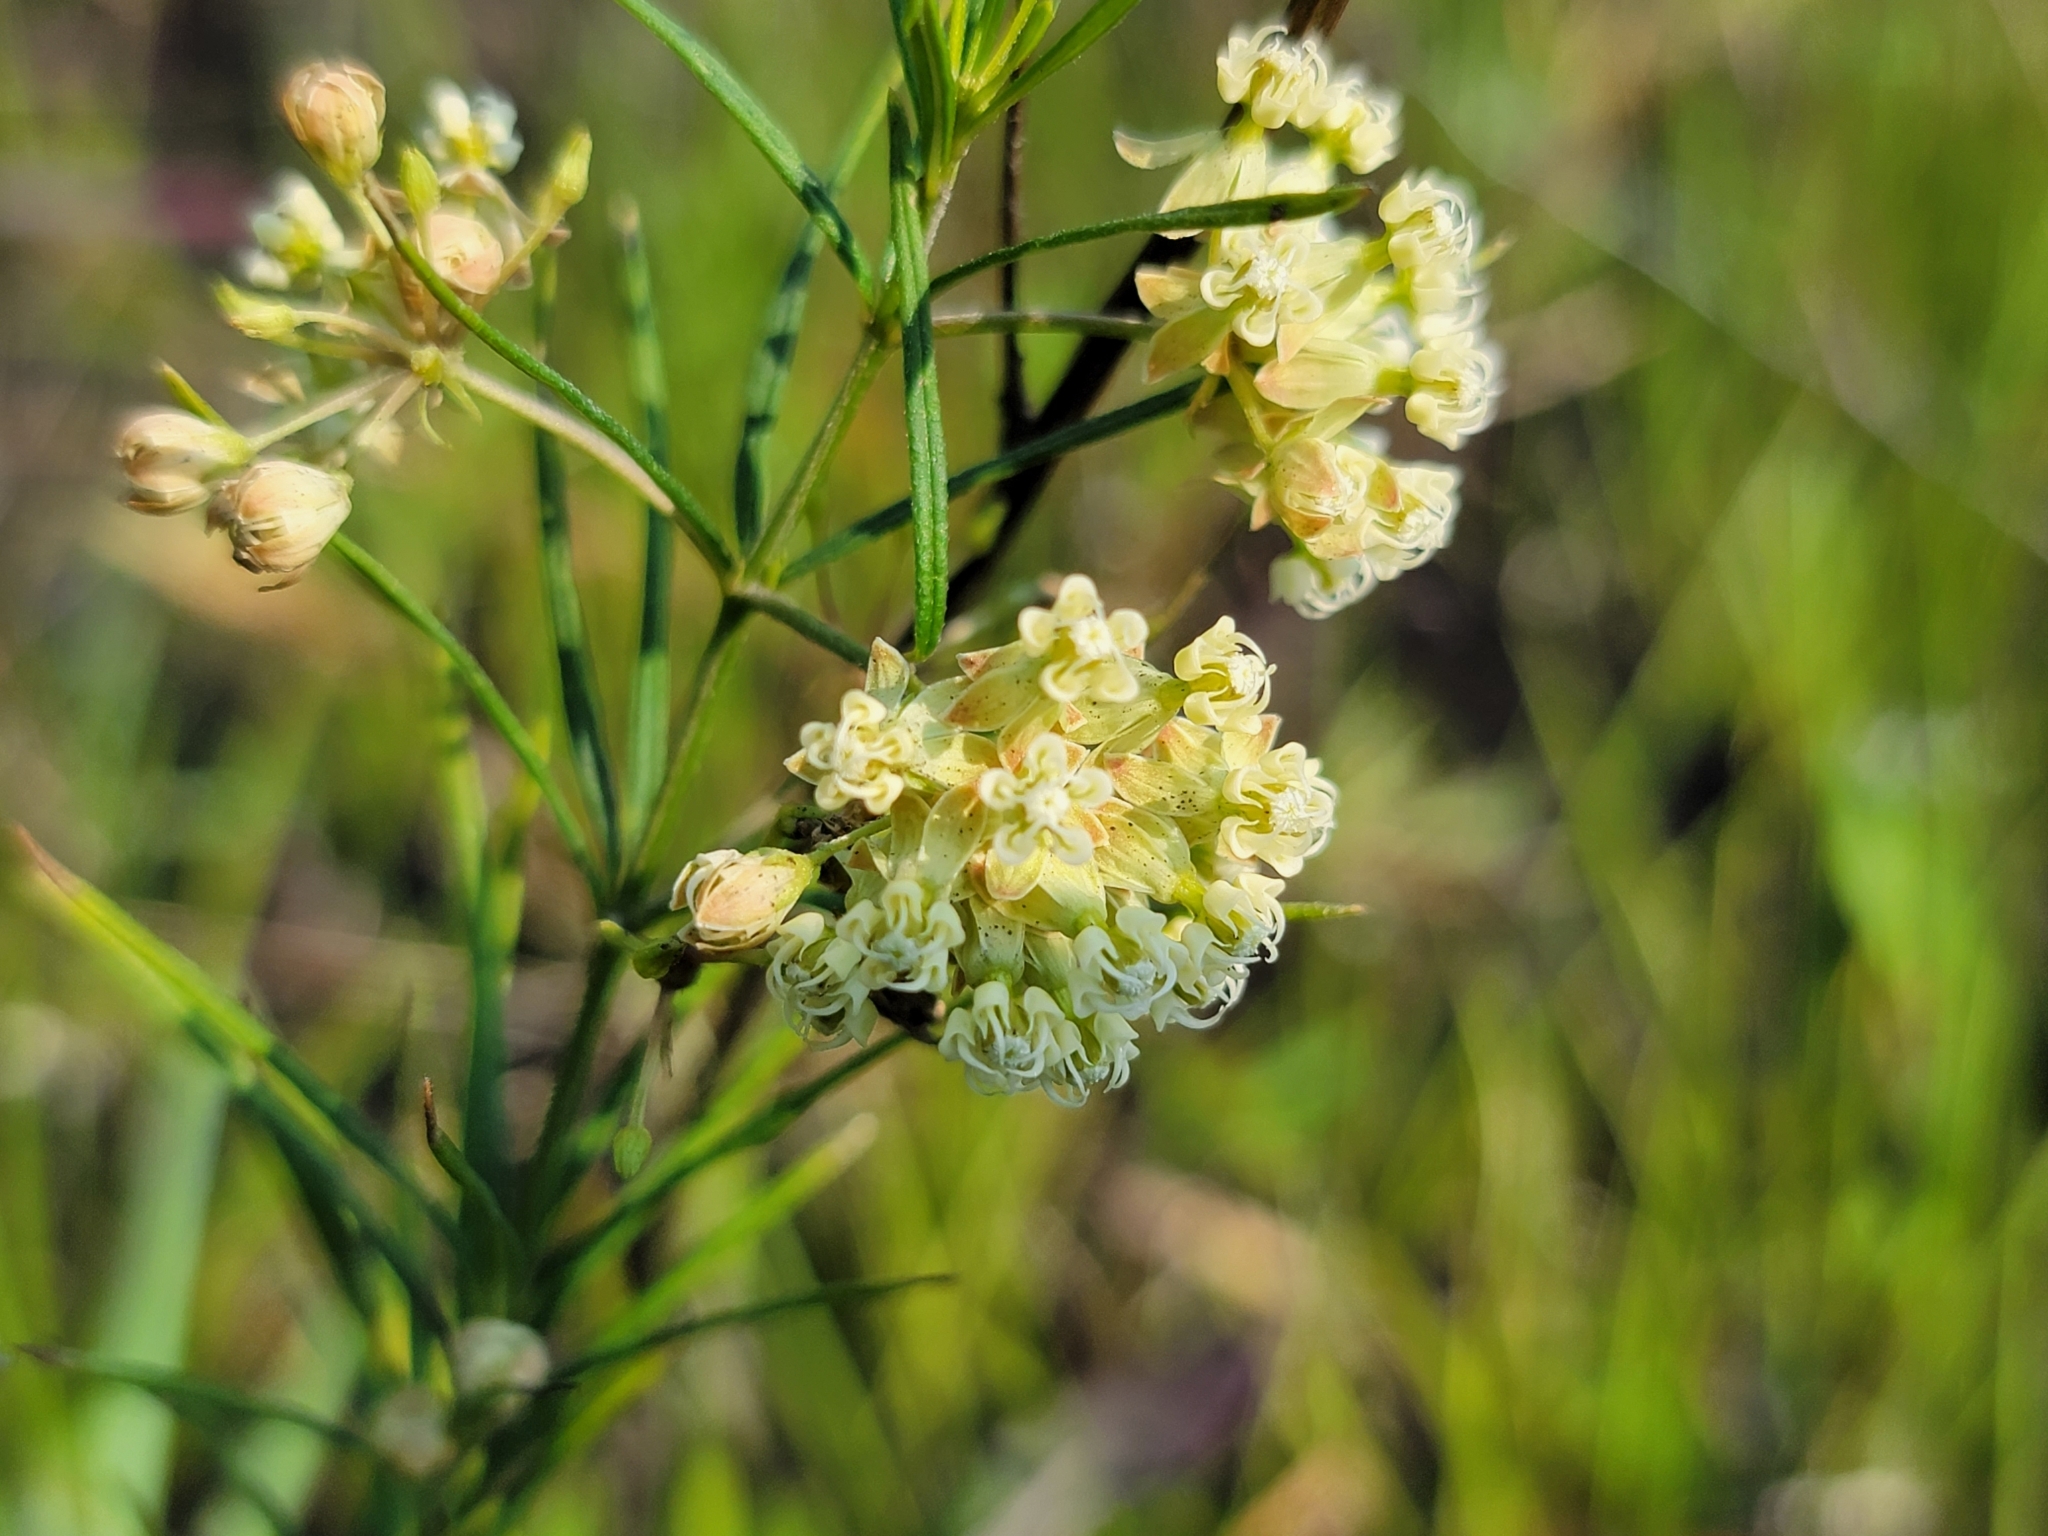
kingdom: Plantae
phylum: Tracheophyta
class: Magnoliopsida
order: Gentianales
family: Apocynaceae
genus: Asclepias
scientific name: Asclepias verticillata
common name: Eastern whorled milkweed
